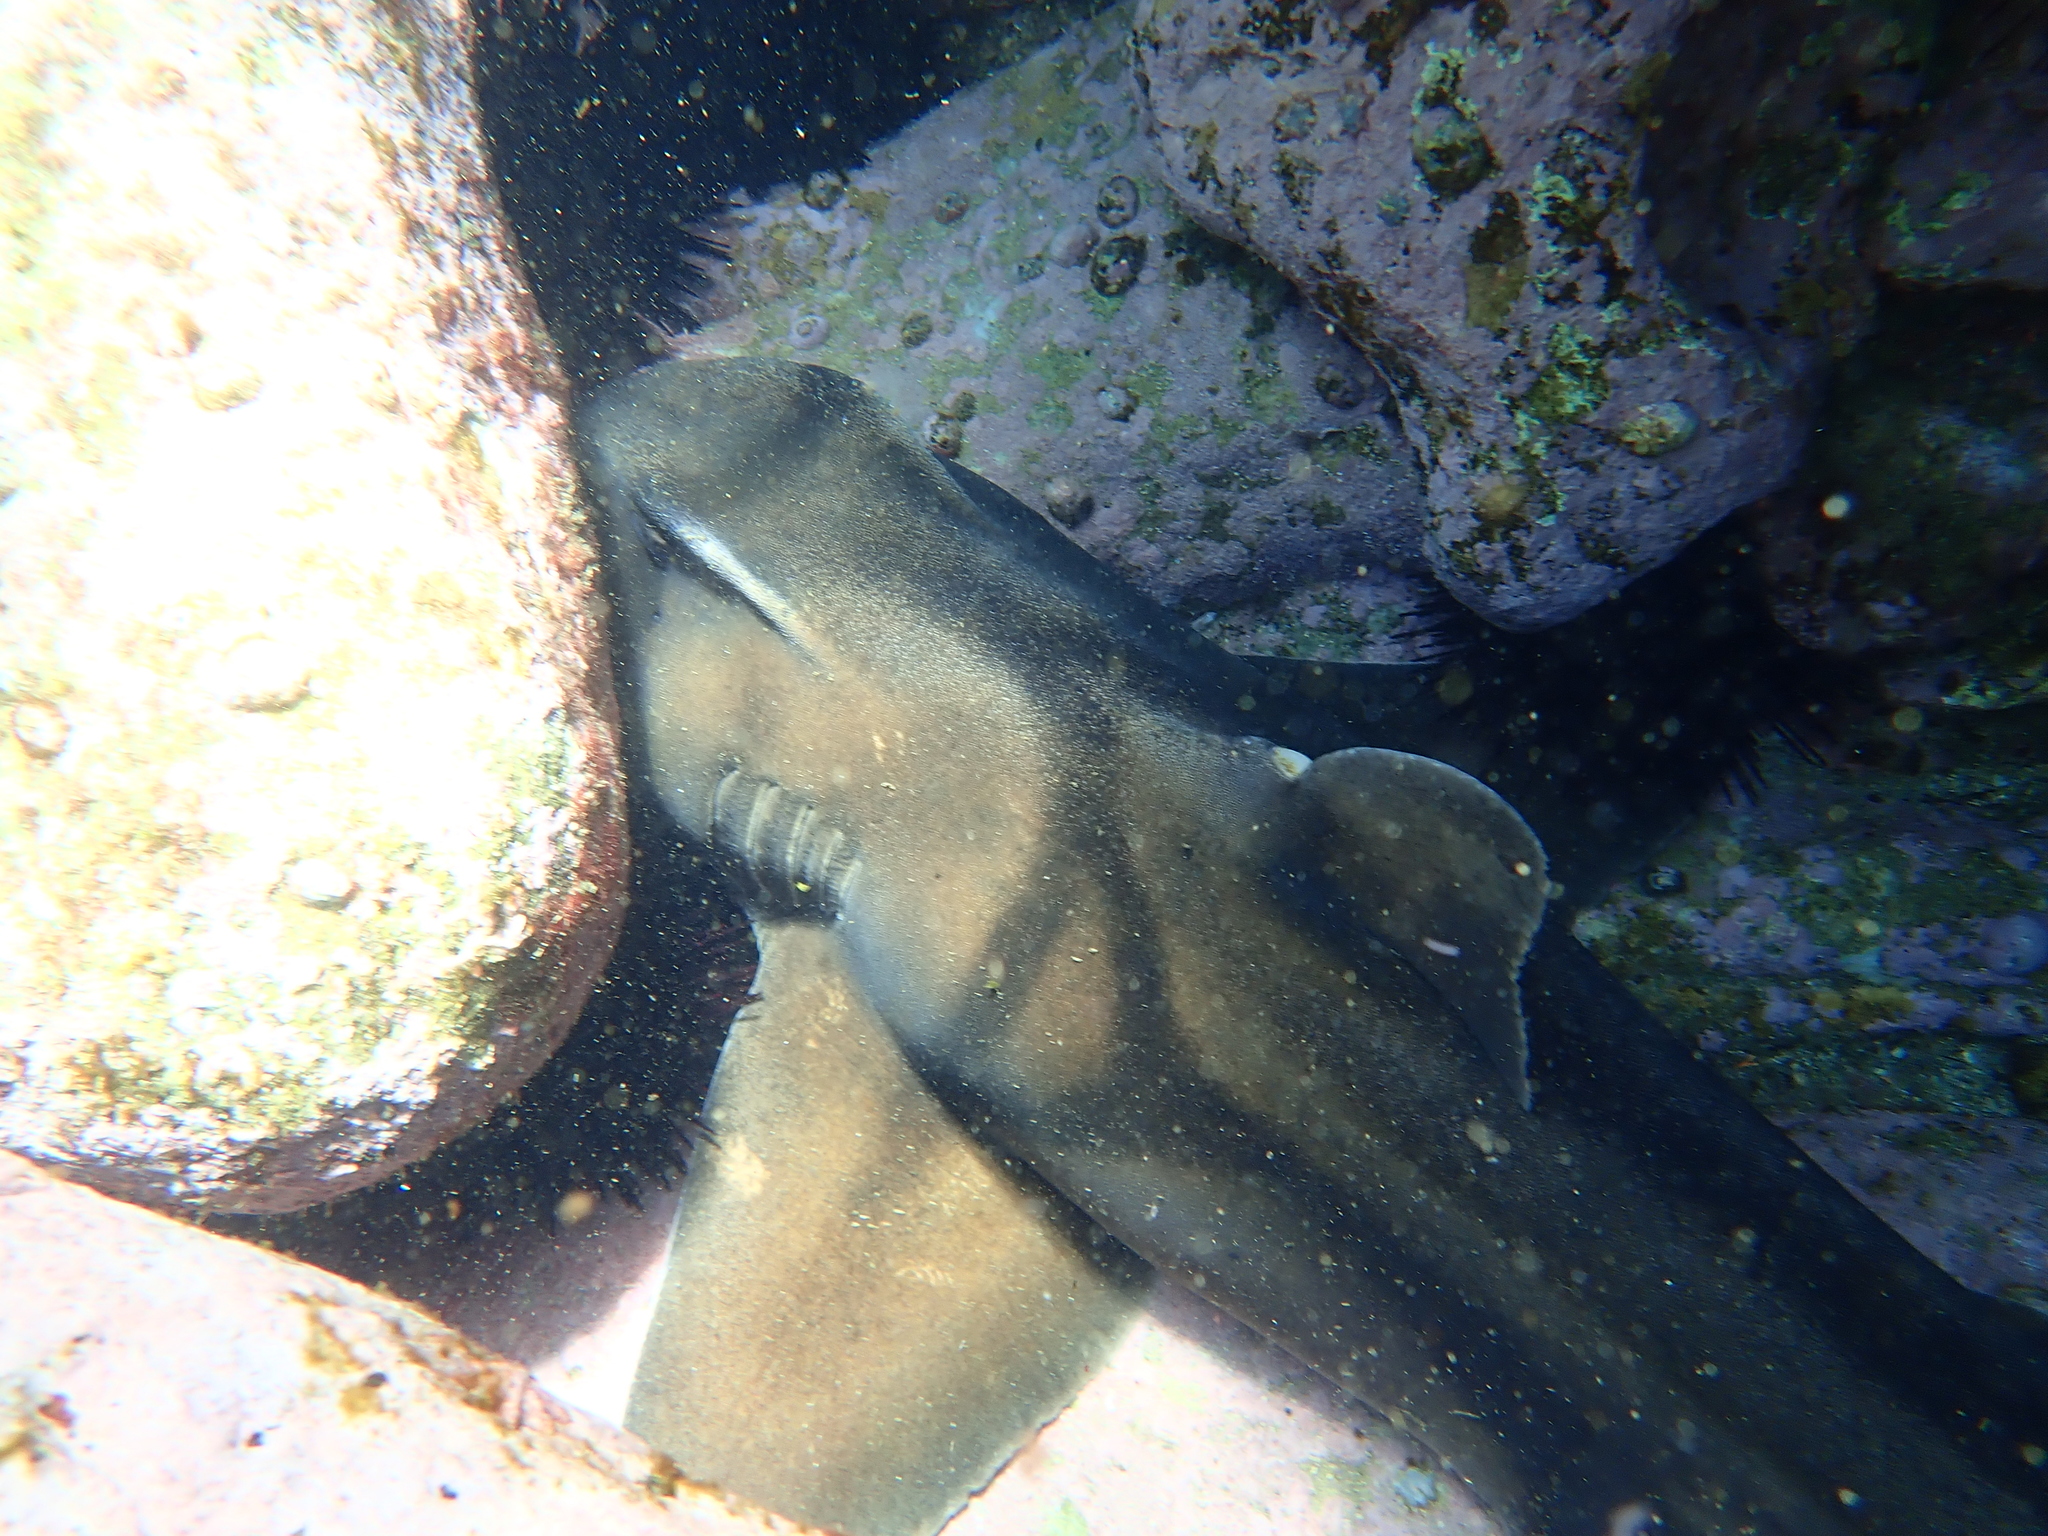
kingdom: Animalia
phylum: Chordata
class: Elasmobranchii
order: Heterodontiformes
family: Heterodontidae
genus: Heterodontus
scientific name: Heterodontus portusjacksoni
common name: Port jackson shark
